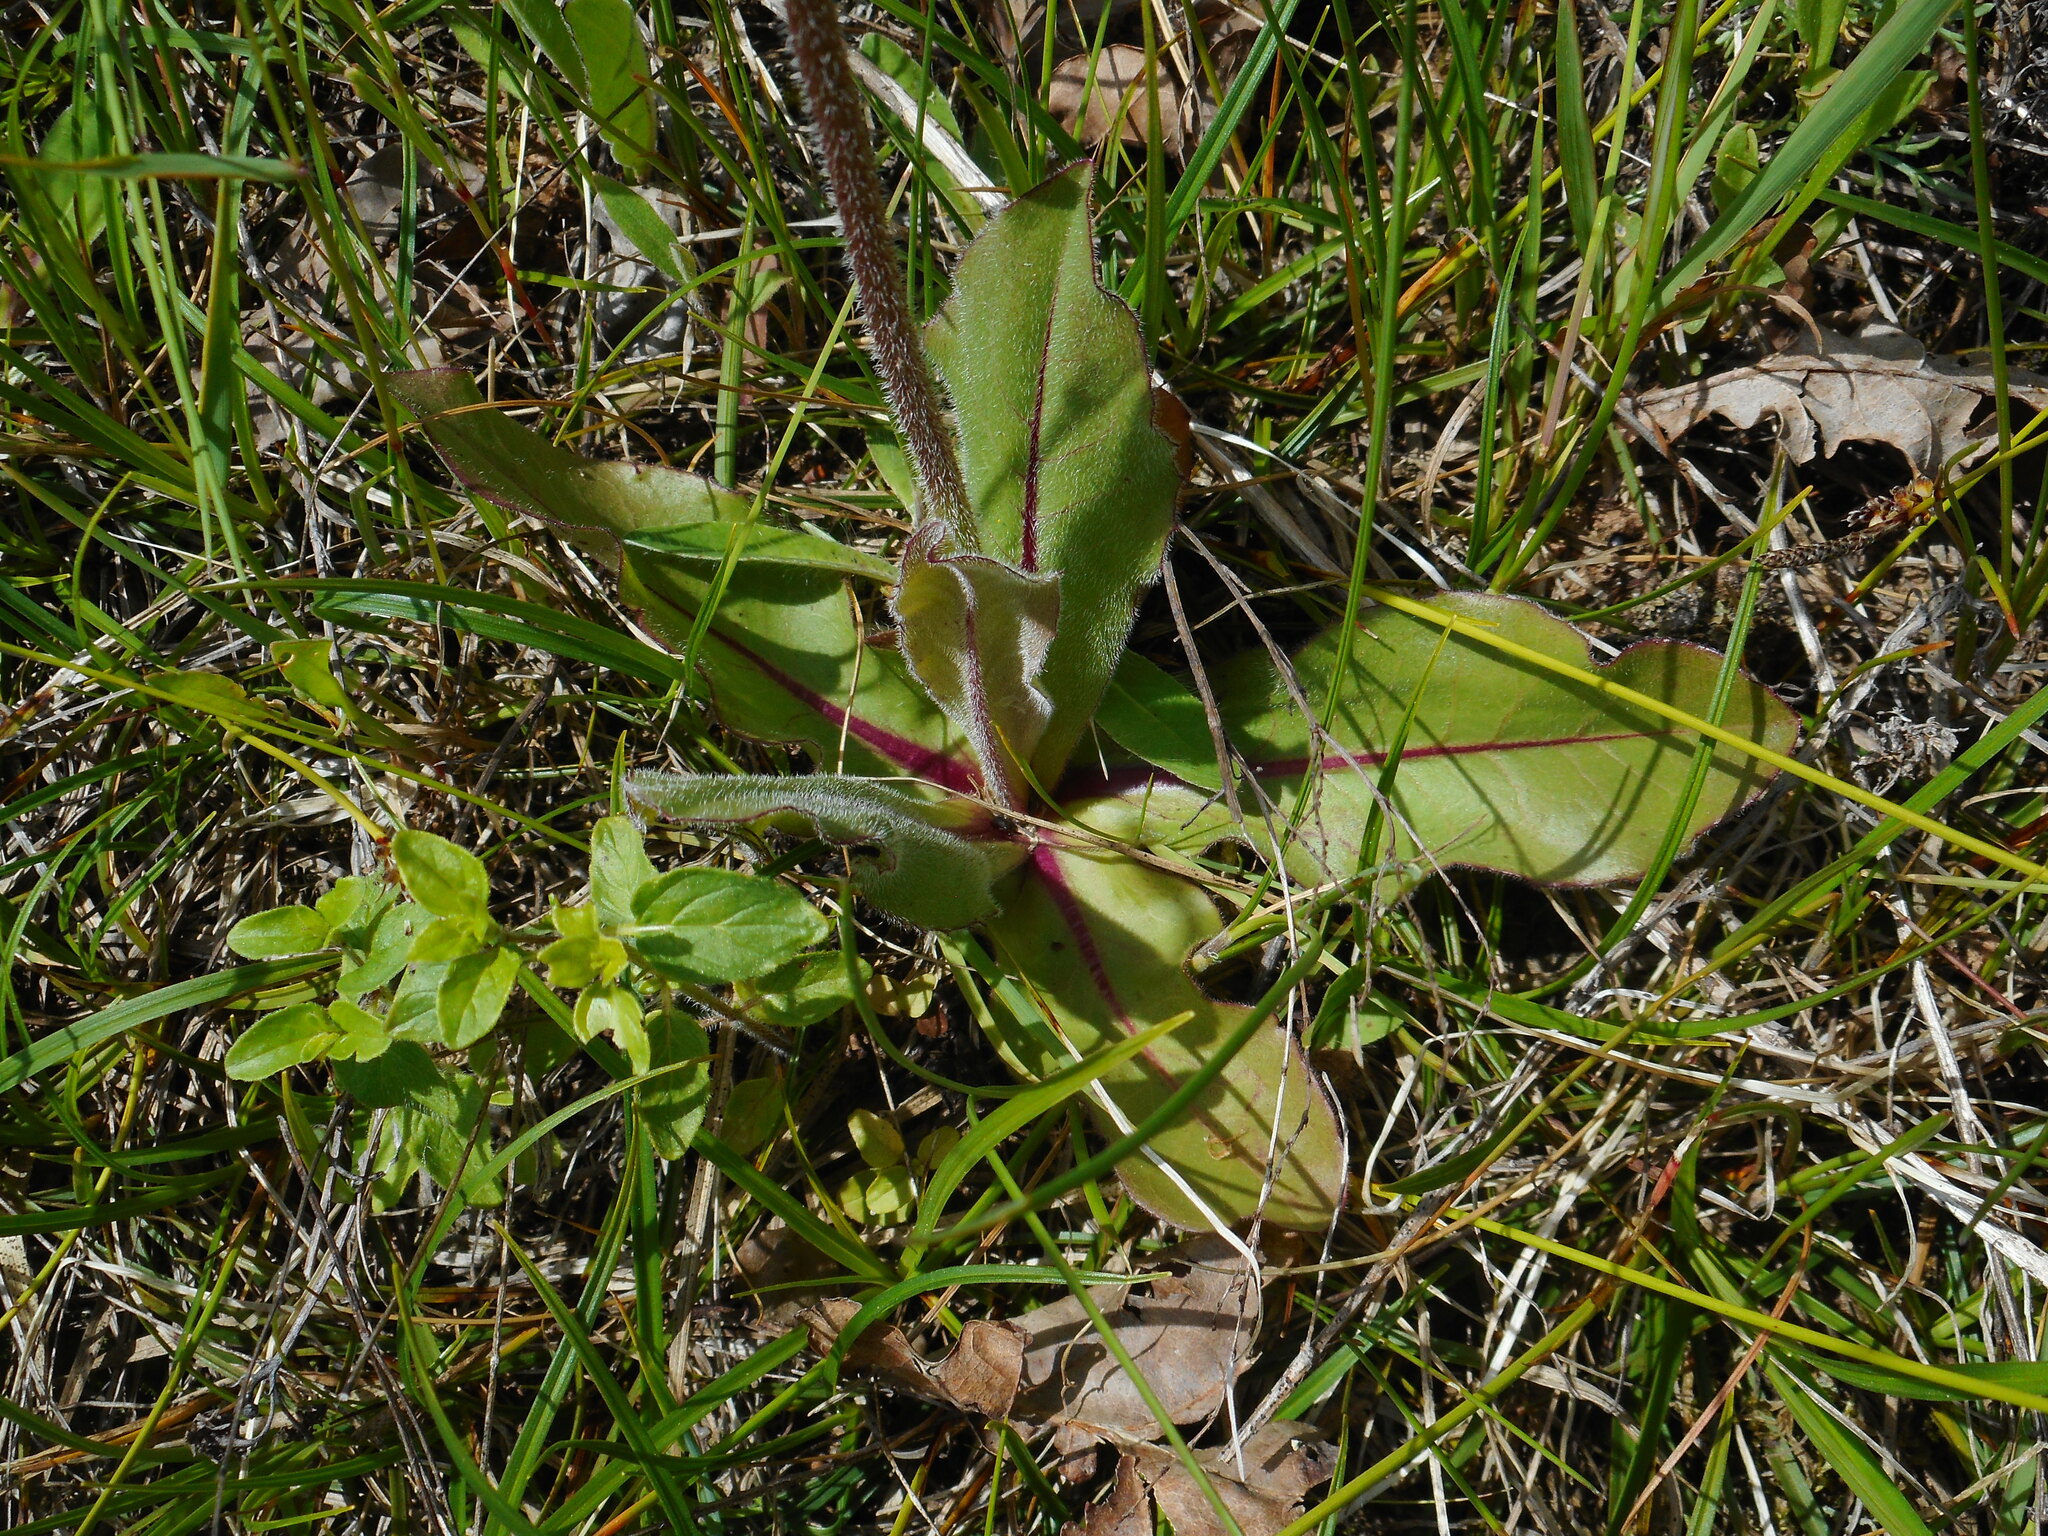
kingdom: Plantae
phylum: Tracheophyta
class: Magnoliopsida
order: Asterales
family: Asteraceae
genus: Trommsdorffia
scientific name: Trommsdorffia maculata
